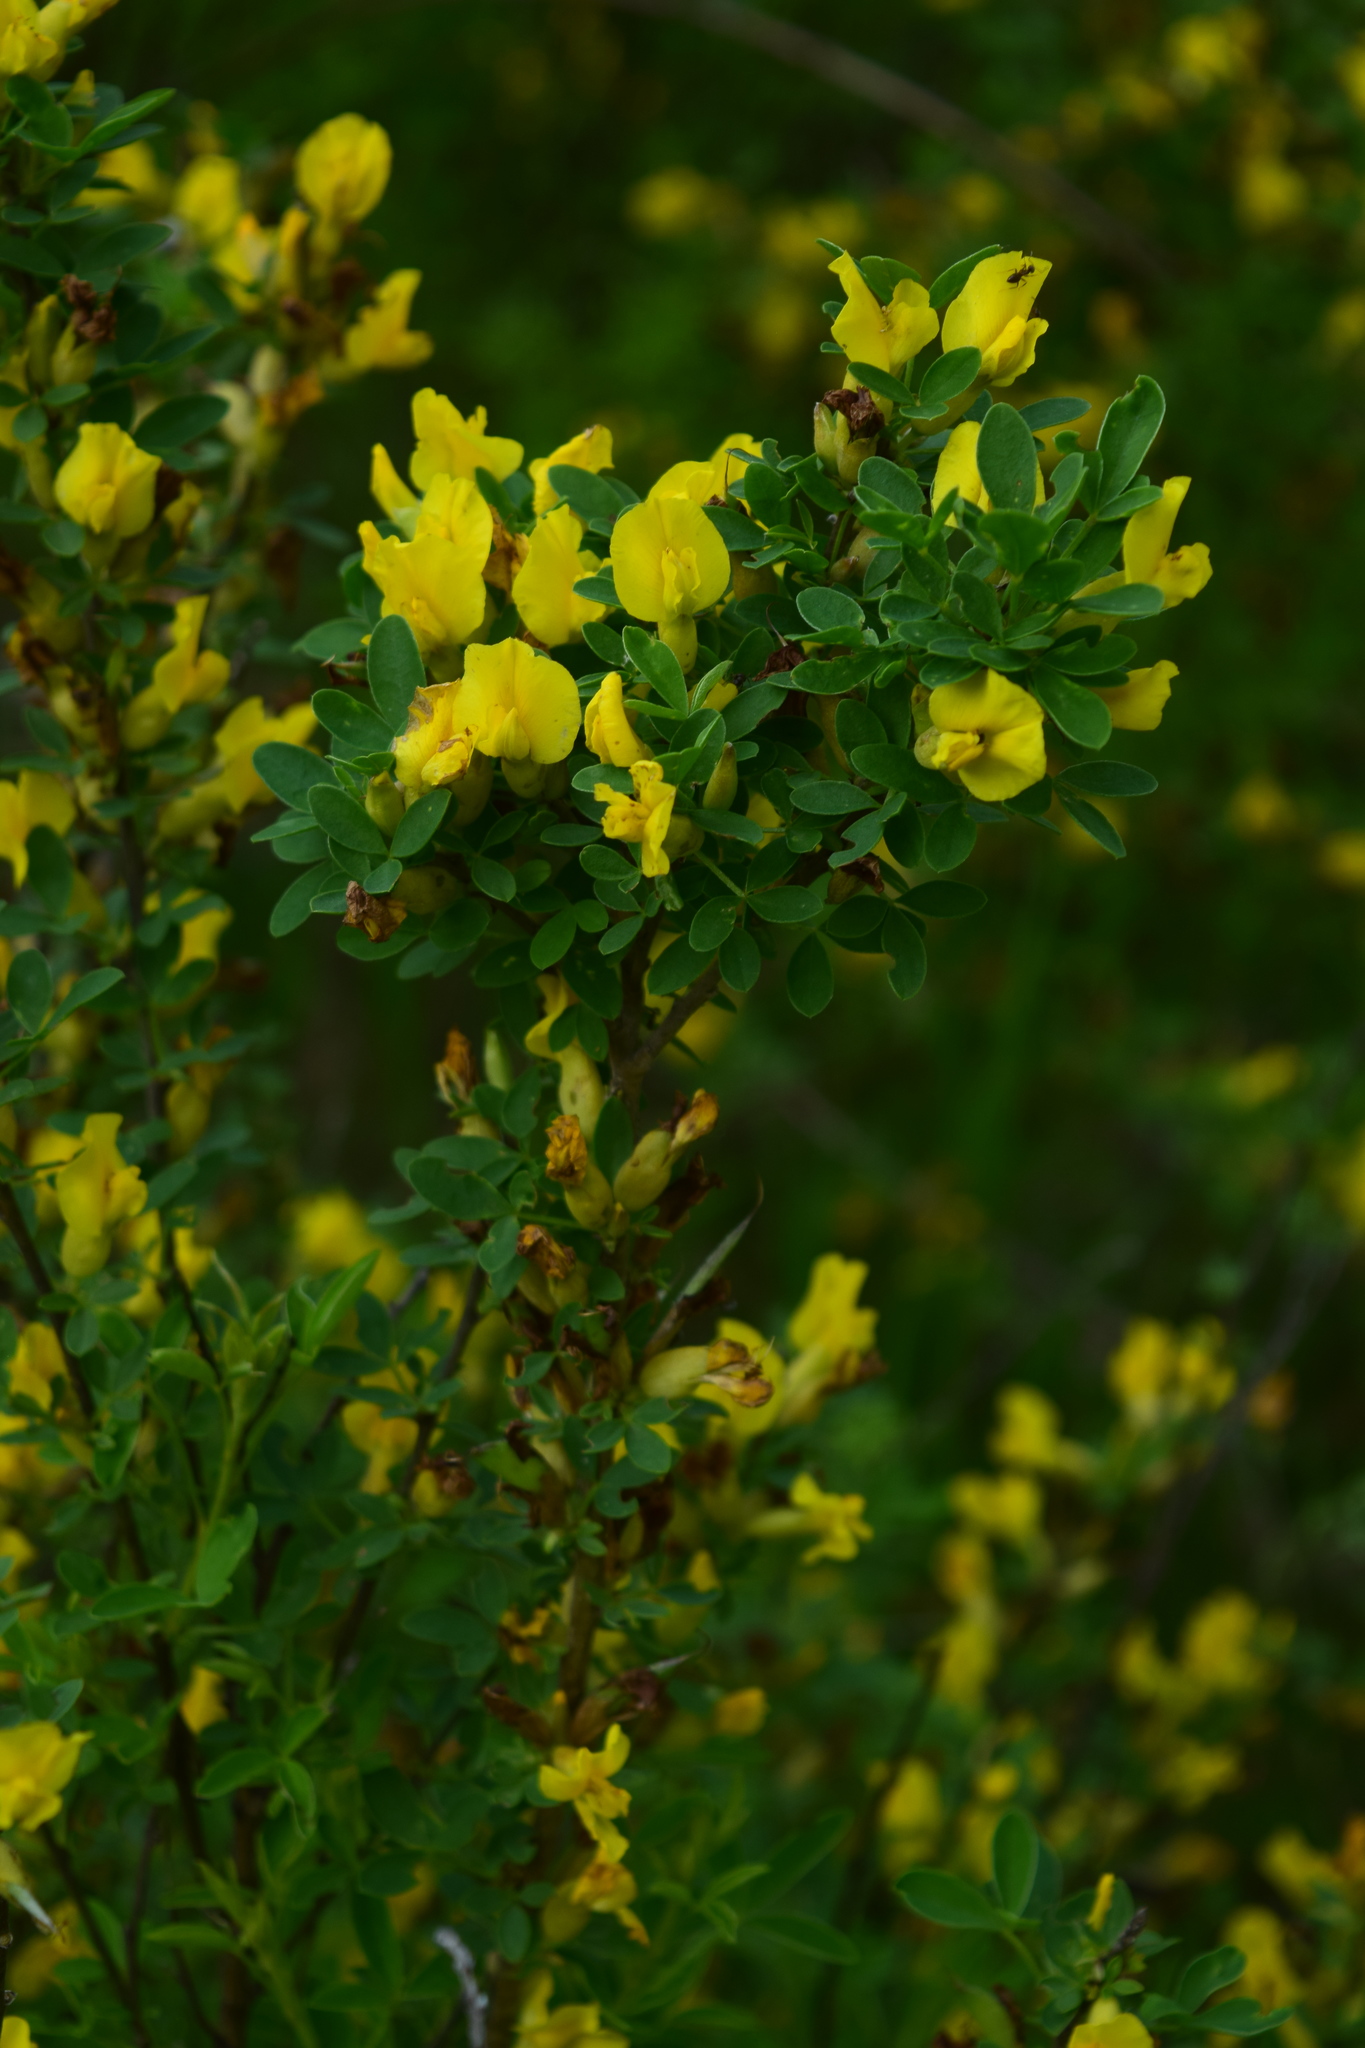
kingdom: Plantae
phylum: Tracheophyta
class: Magnoliopsida
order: Fabales
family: Fabaceae
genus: Chamaecytisus
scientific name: Chamaecytisus ruthenicus
